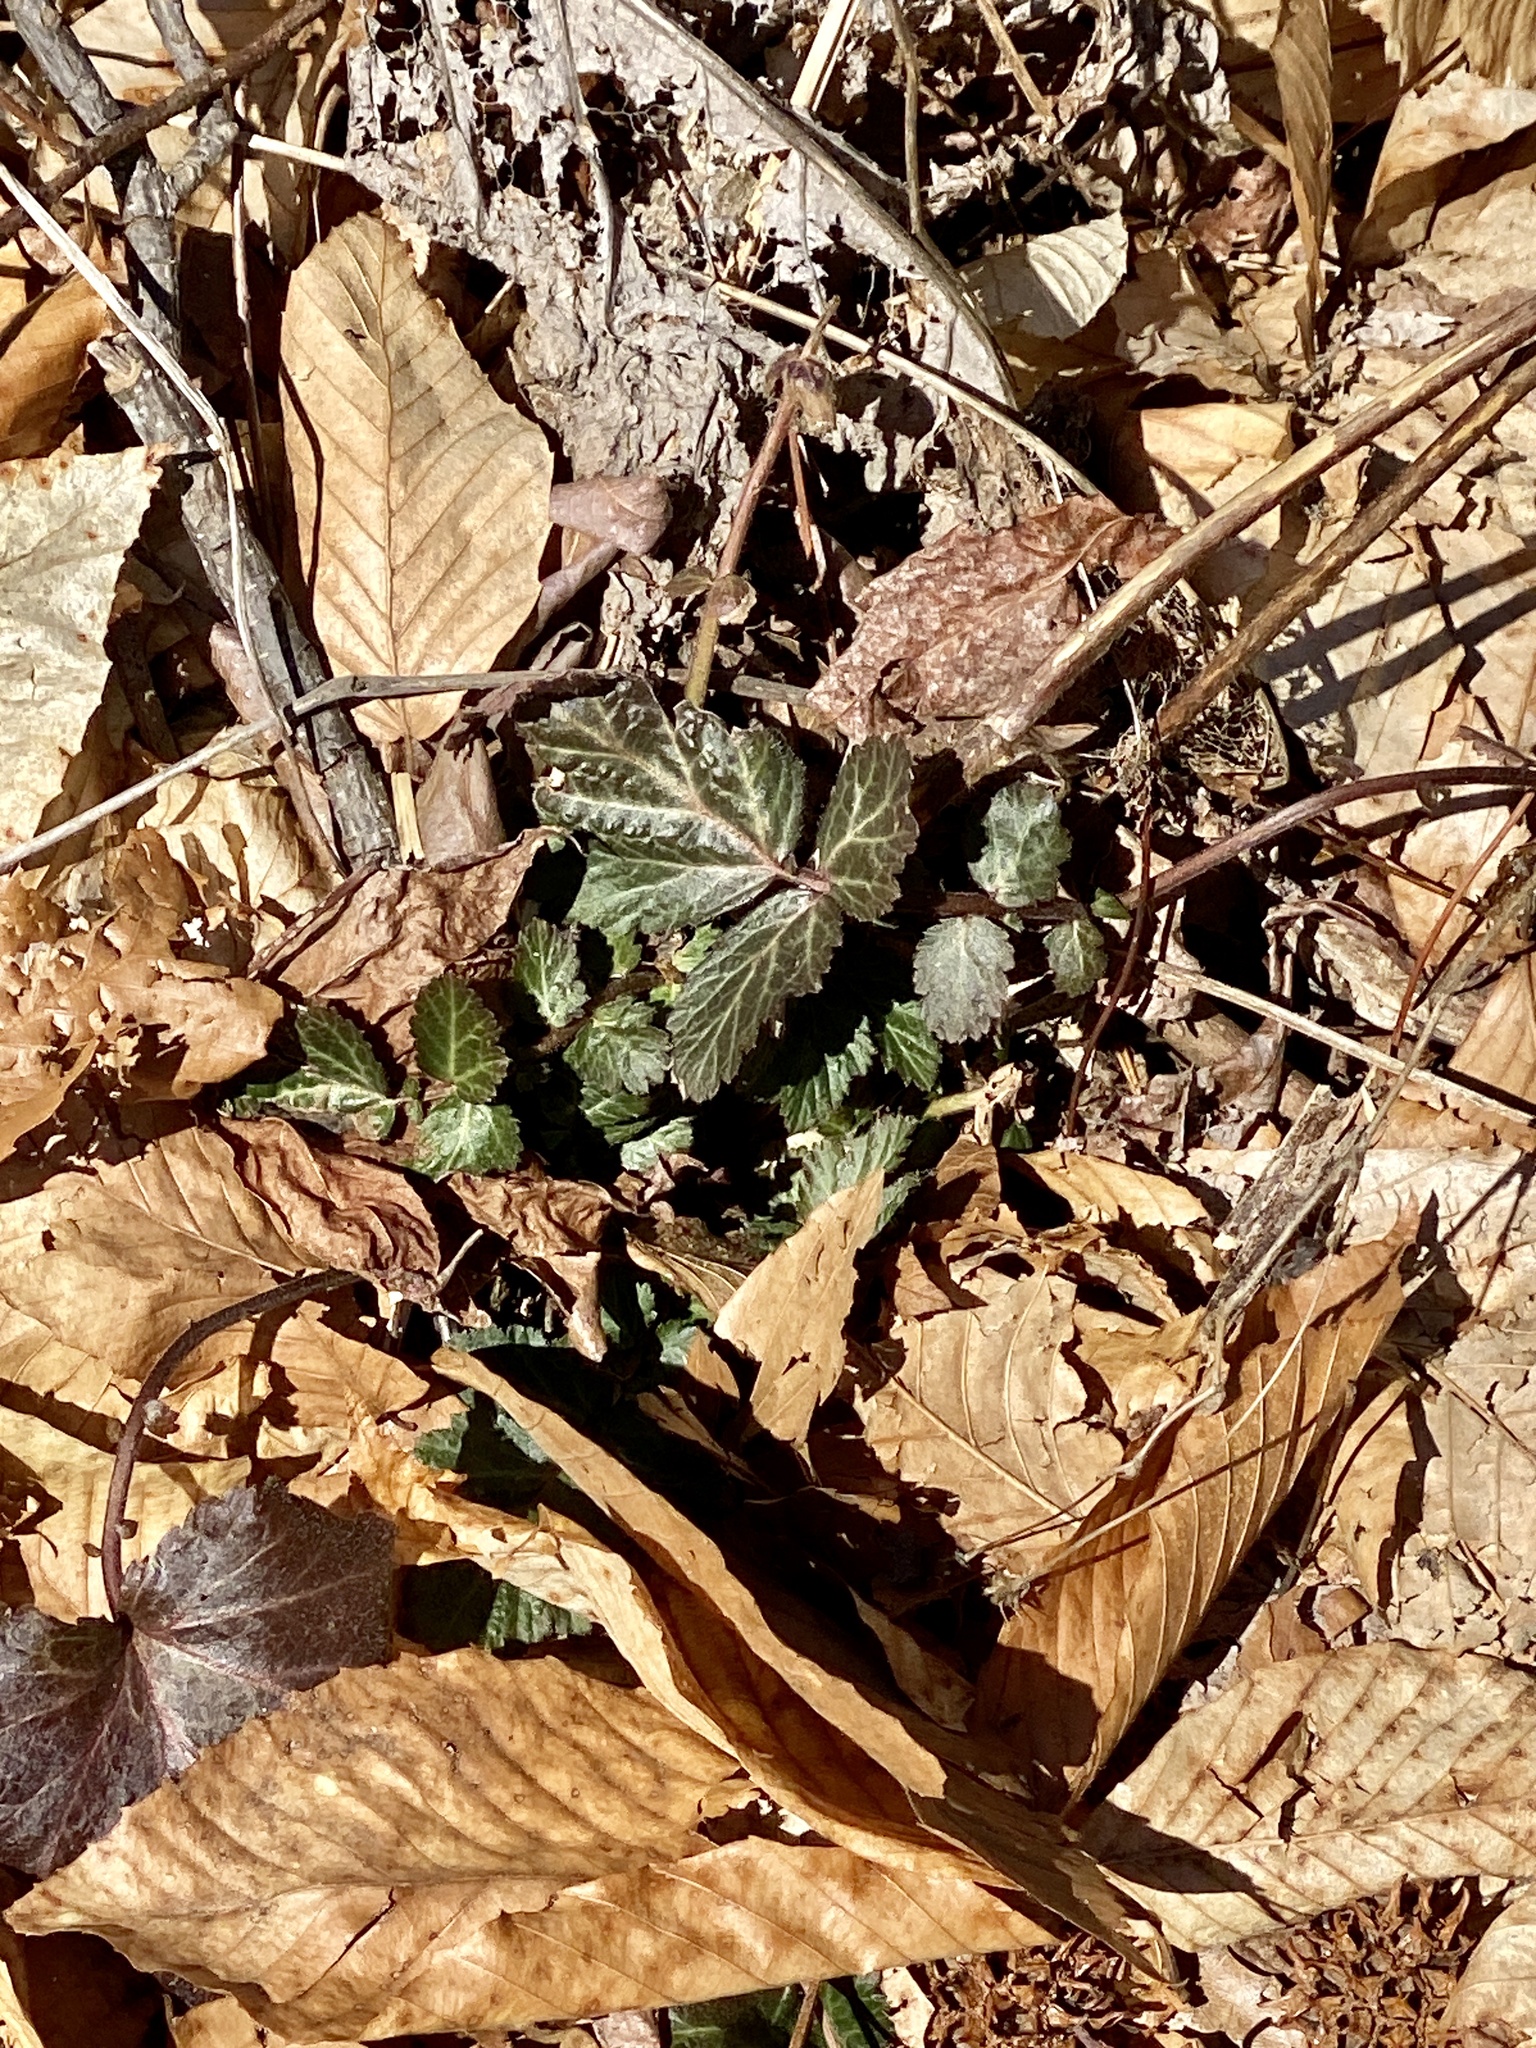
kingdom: Plantae
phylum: Tracheophyta
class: Magnoliopsida
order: Rosales
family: Rosaceae
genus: Geum
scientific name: Geum canadense
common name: White avens
